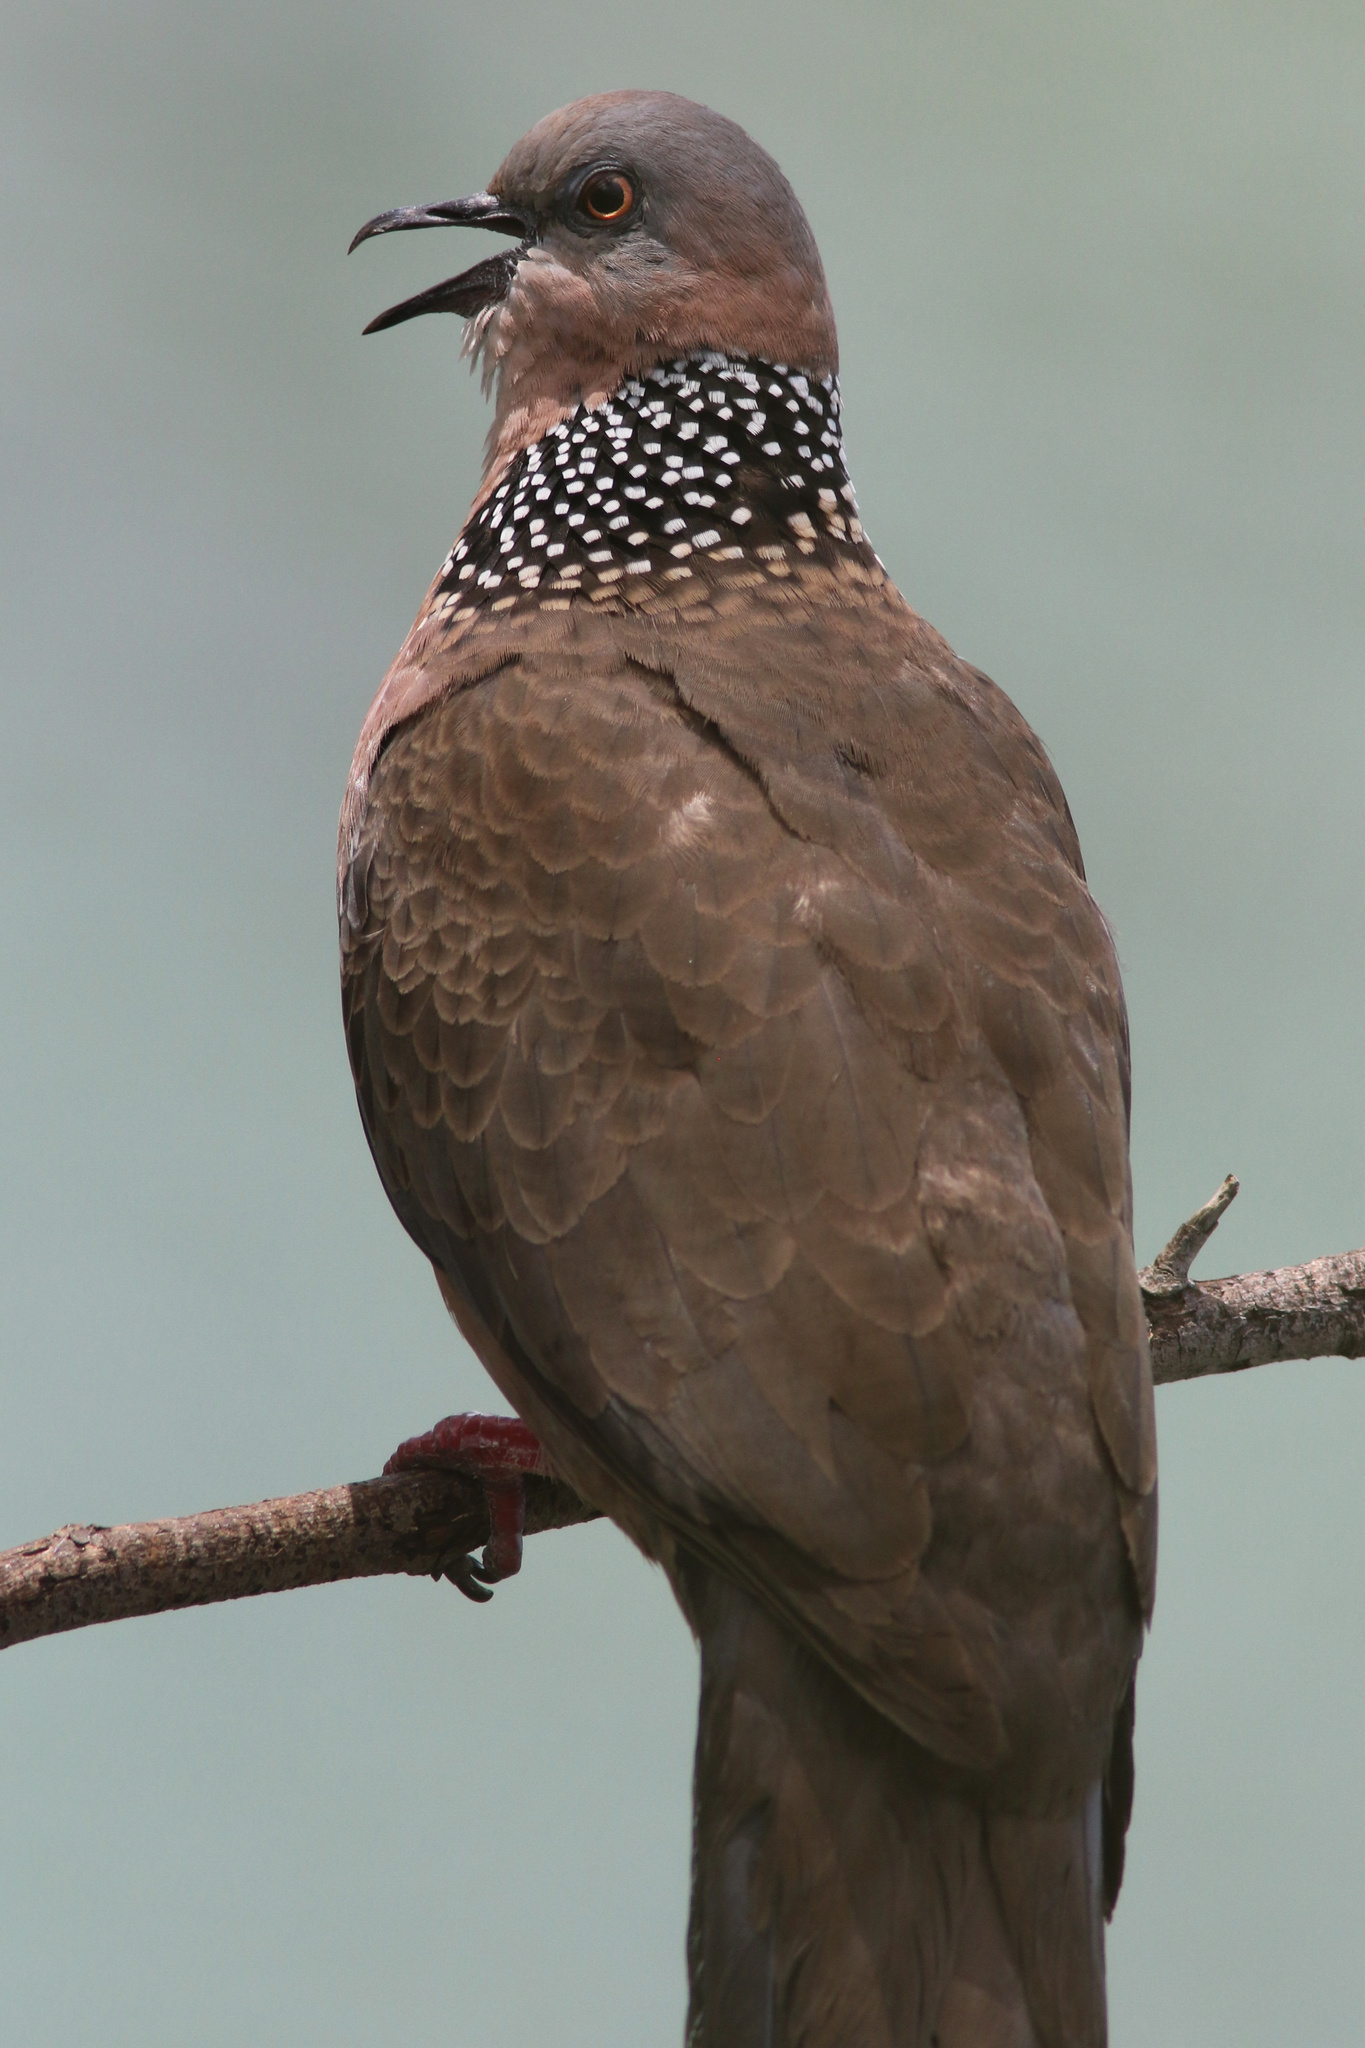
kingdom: Animalia
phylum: Chordata
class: Aves
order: Columbiformes
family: Columbidae
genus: Spilopelia
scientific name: Spilopelia chinensis
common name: Spotted dove
